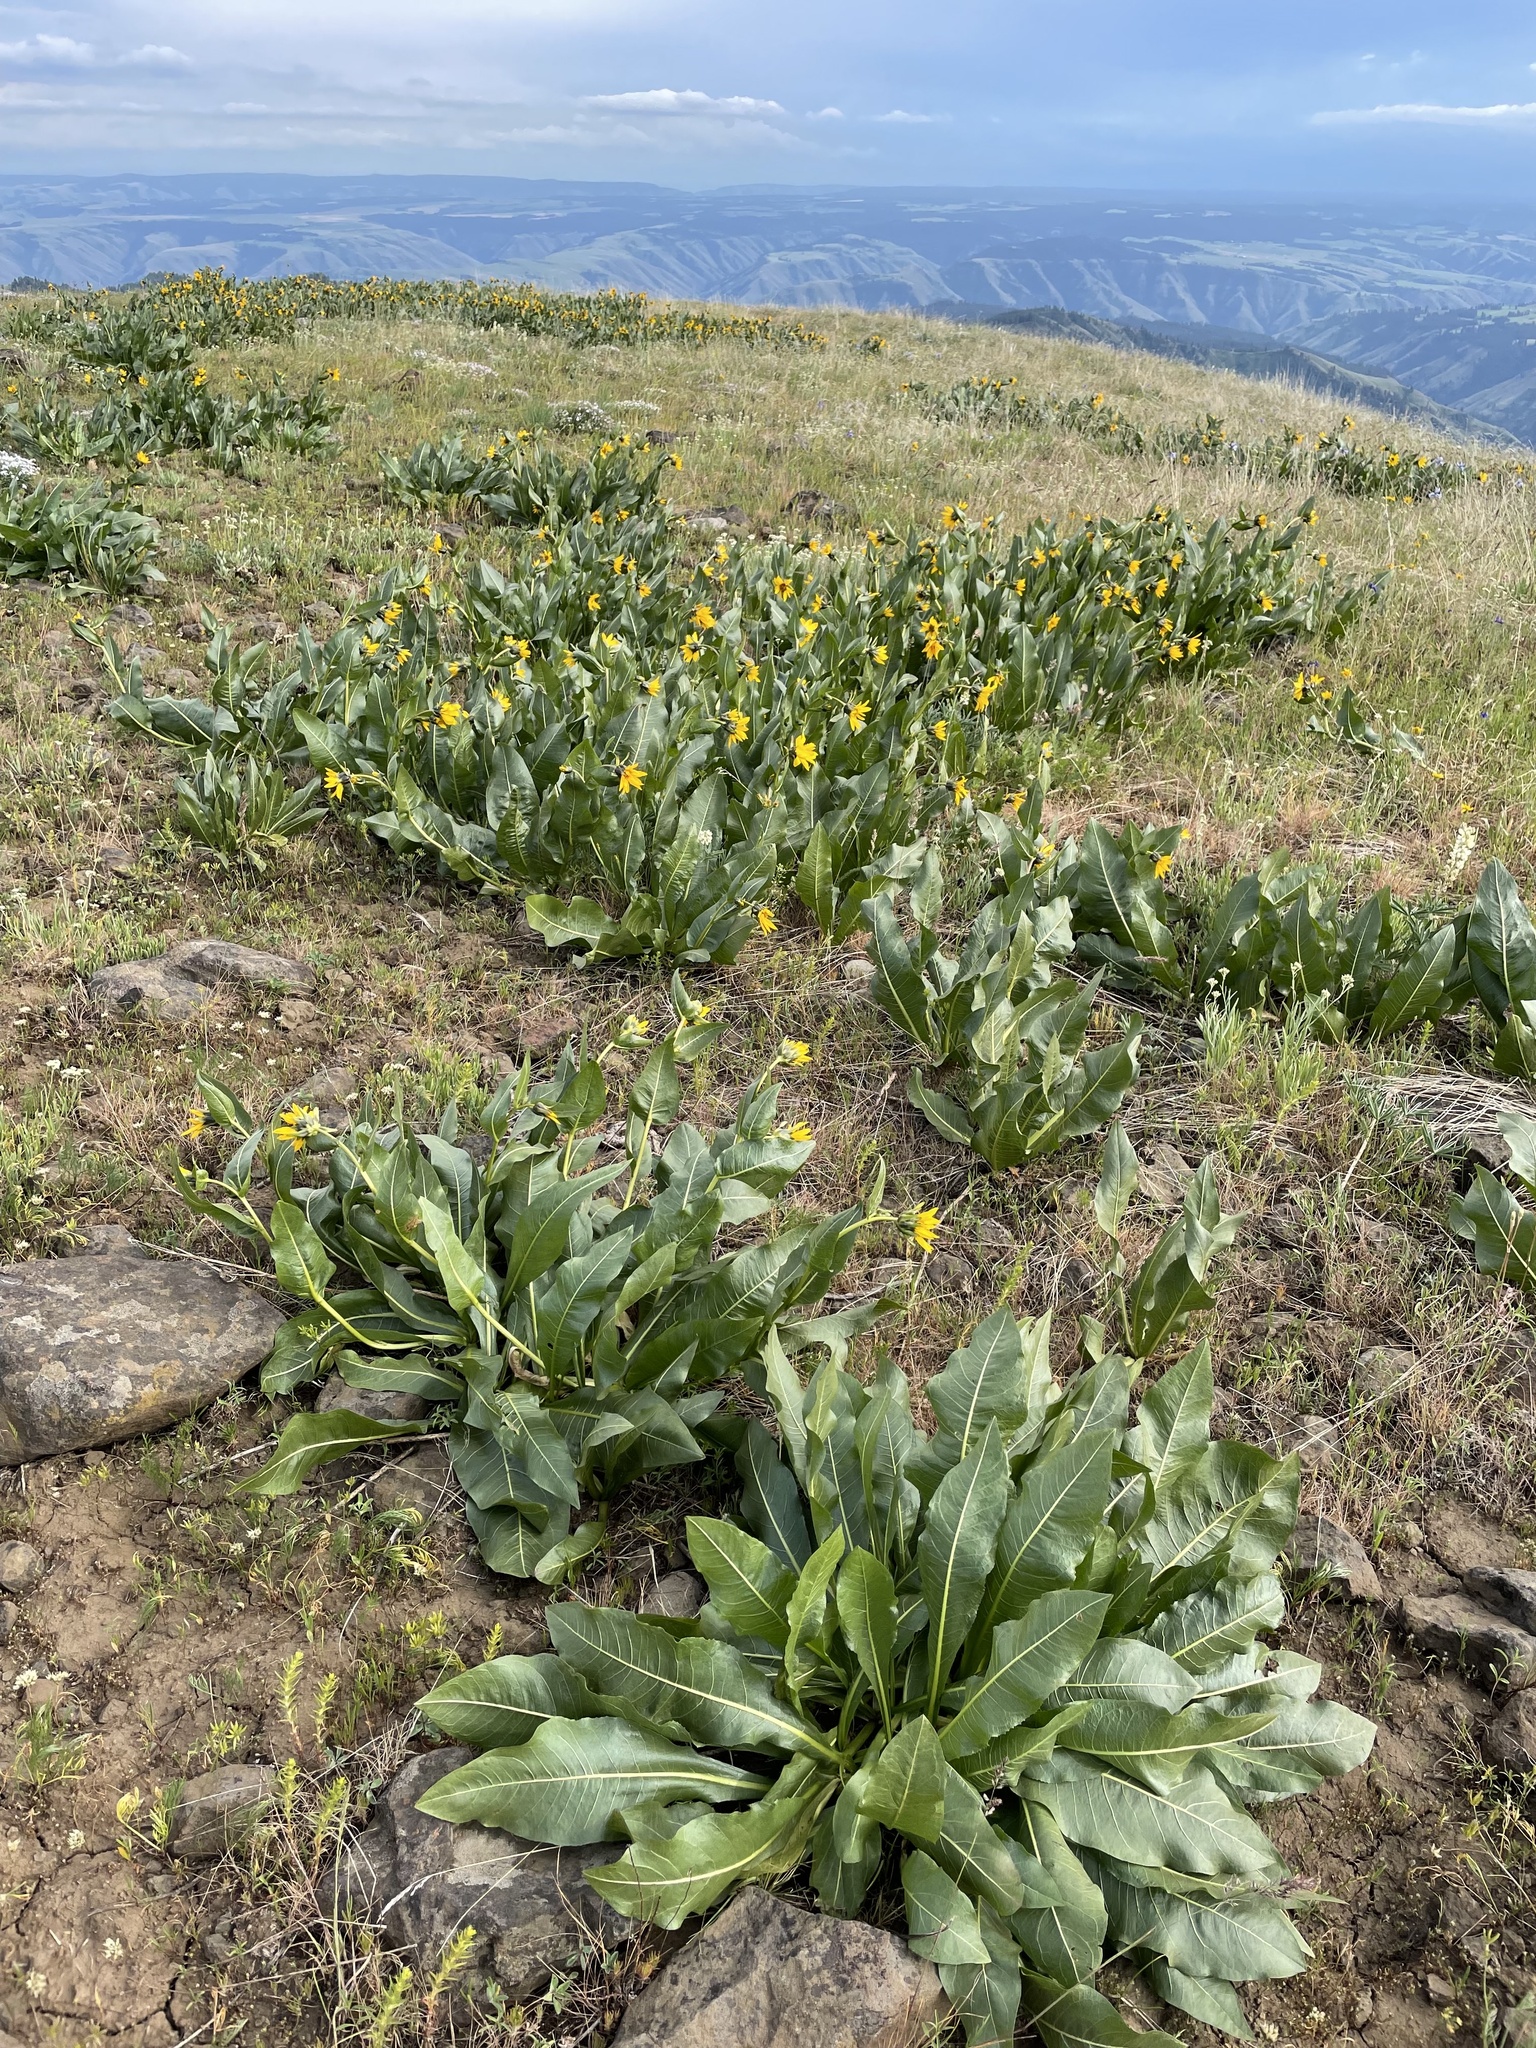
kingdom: Plantae
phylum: Tracheophyta
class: Magnoliopsida
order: Asterales
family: Asteraceae
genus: Wyethia
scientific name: Wyethia amplexicaulis
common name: Northern mule's-ears
